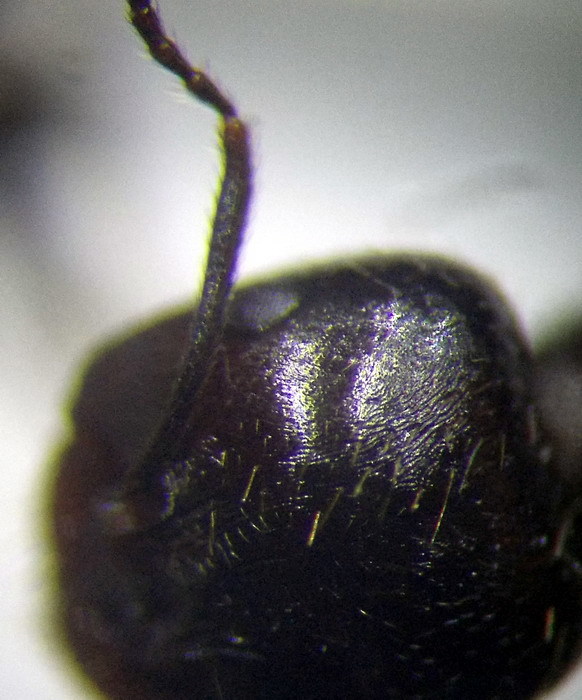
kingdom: Animalia
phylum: Arthropoda
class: Insecta
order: Hymenoptera
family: Formicidae
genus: Messor
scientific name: Messor structor
